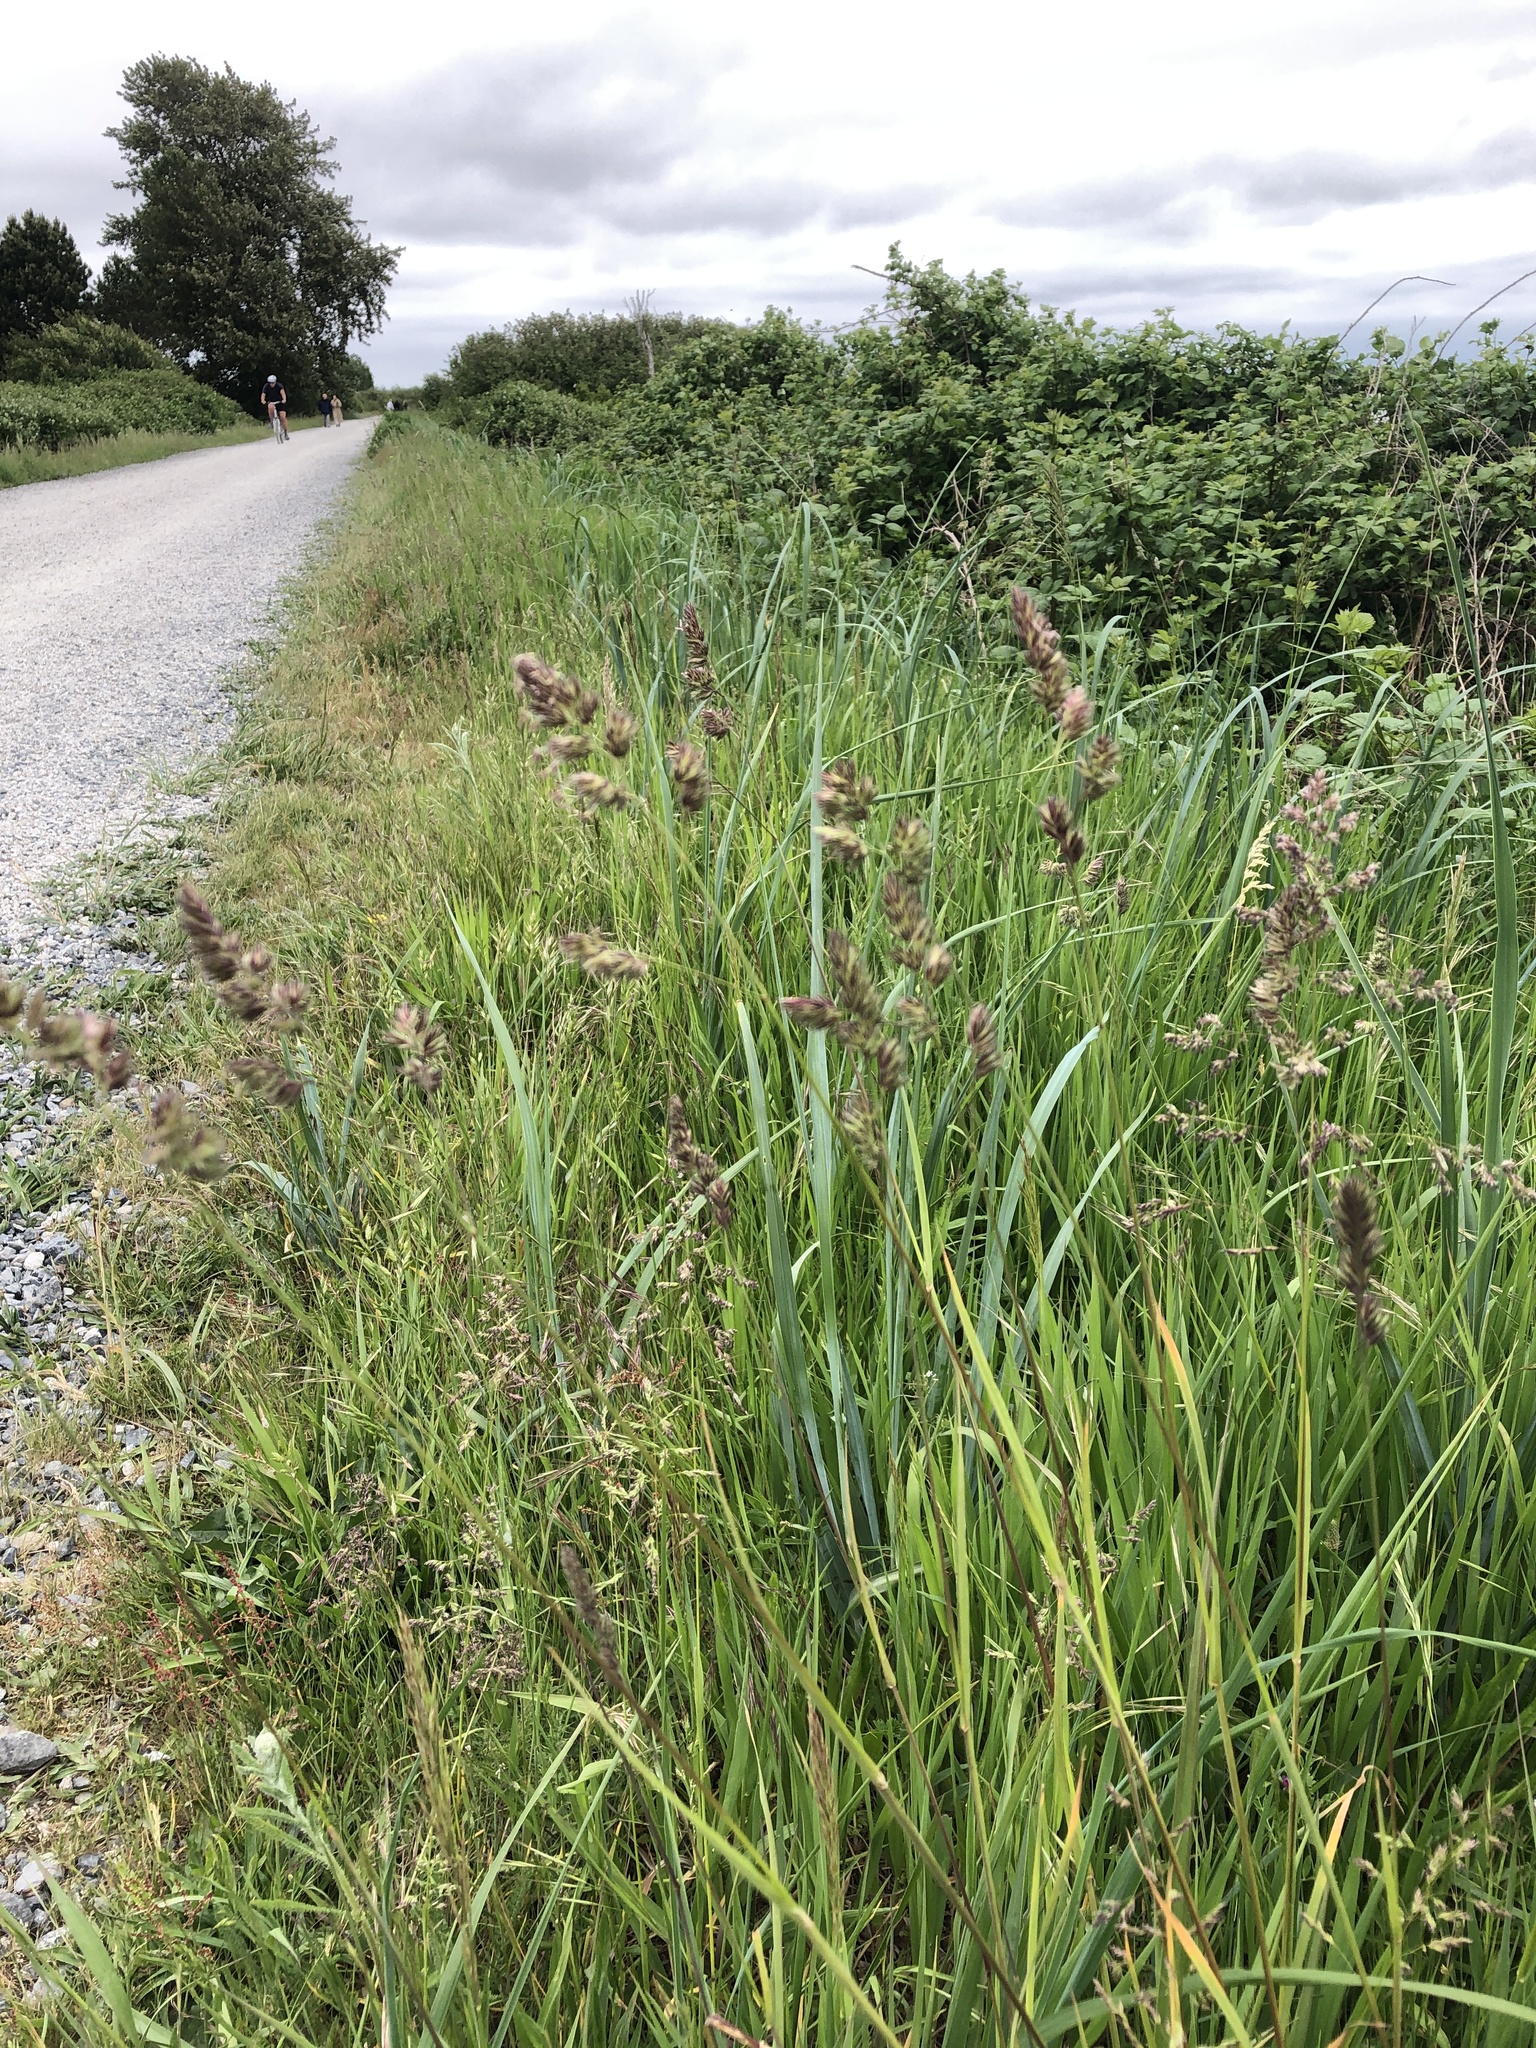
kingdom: Plantae
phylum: Tracheophyta
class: Liliopsida
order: Poales
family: Poaceae
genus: Dactylis
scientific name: Dactylis glomerata
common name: Orchardgrass
